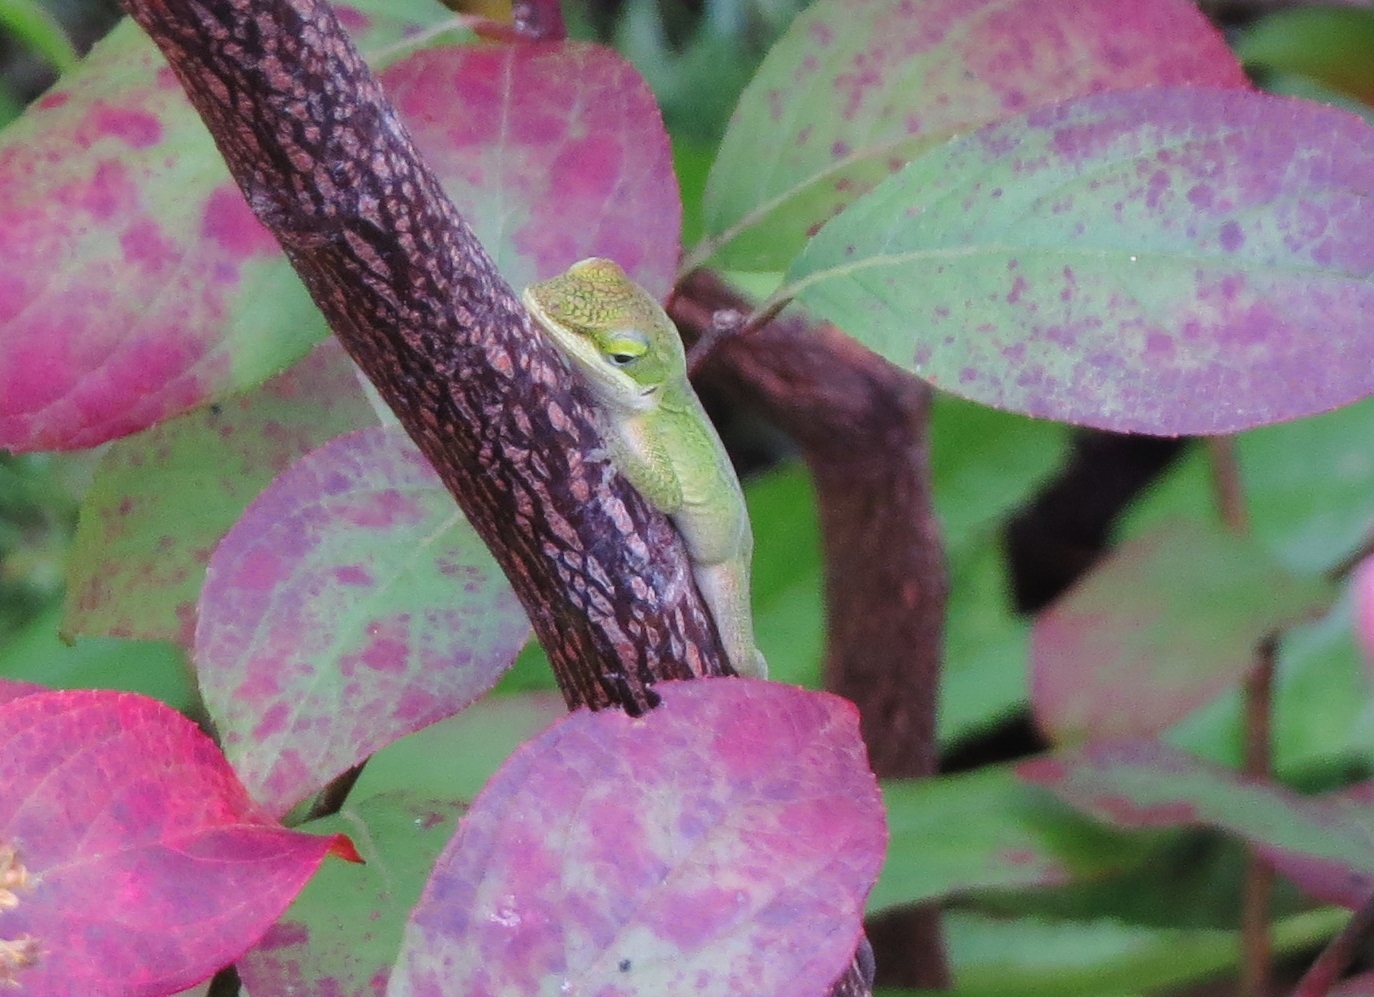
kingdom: Animalia
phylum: Chordata
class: Squamata
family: Dactyloidae
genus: Anolis
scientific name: Anolis carolinensis
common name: Green anole
